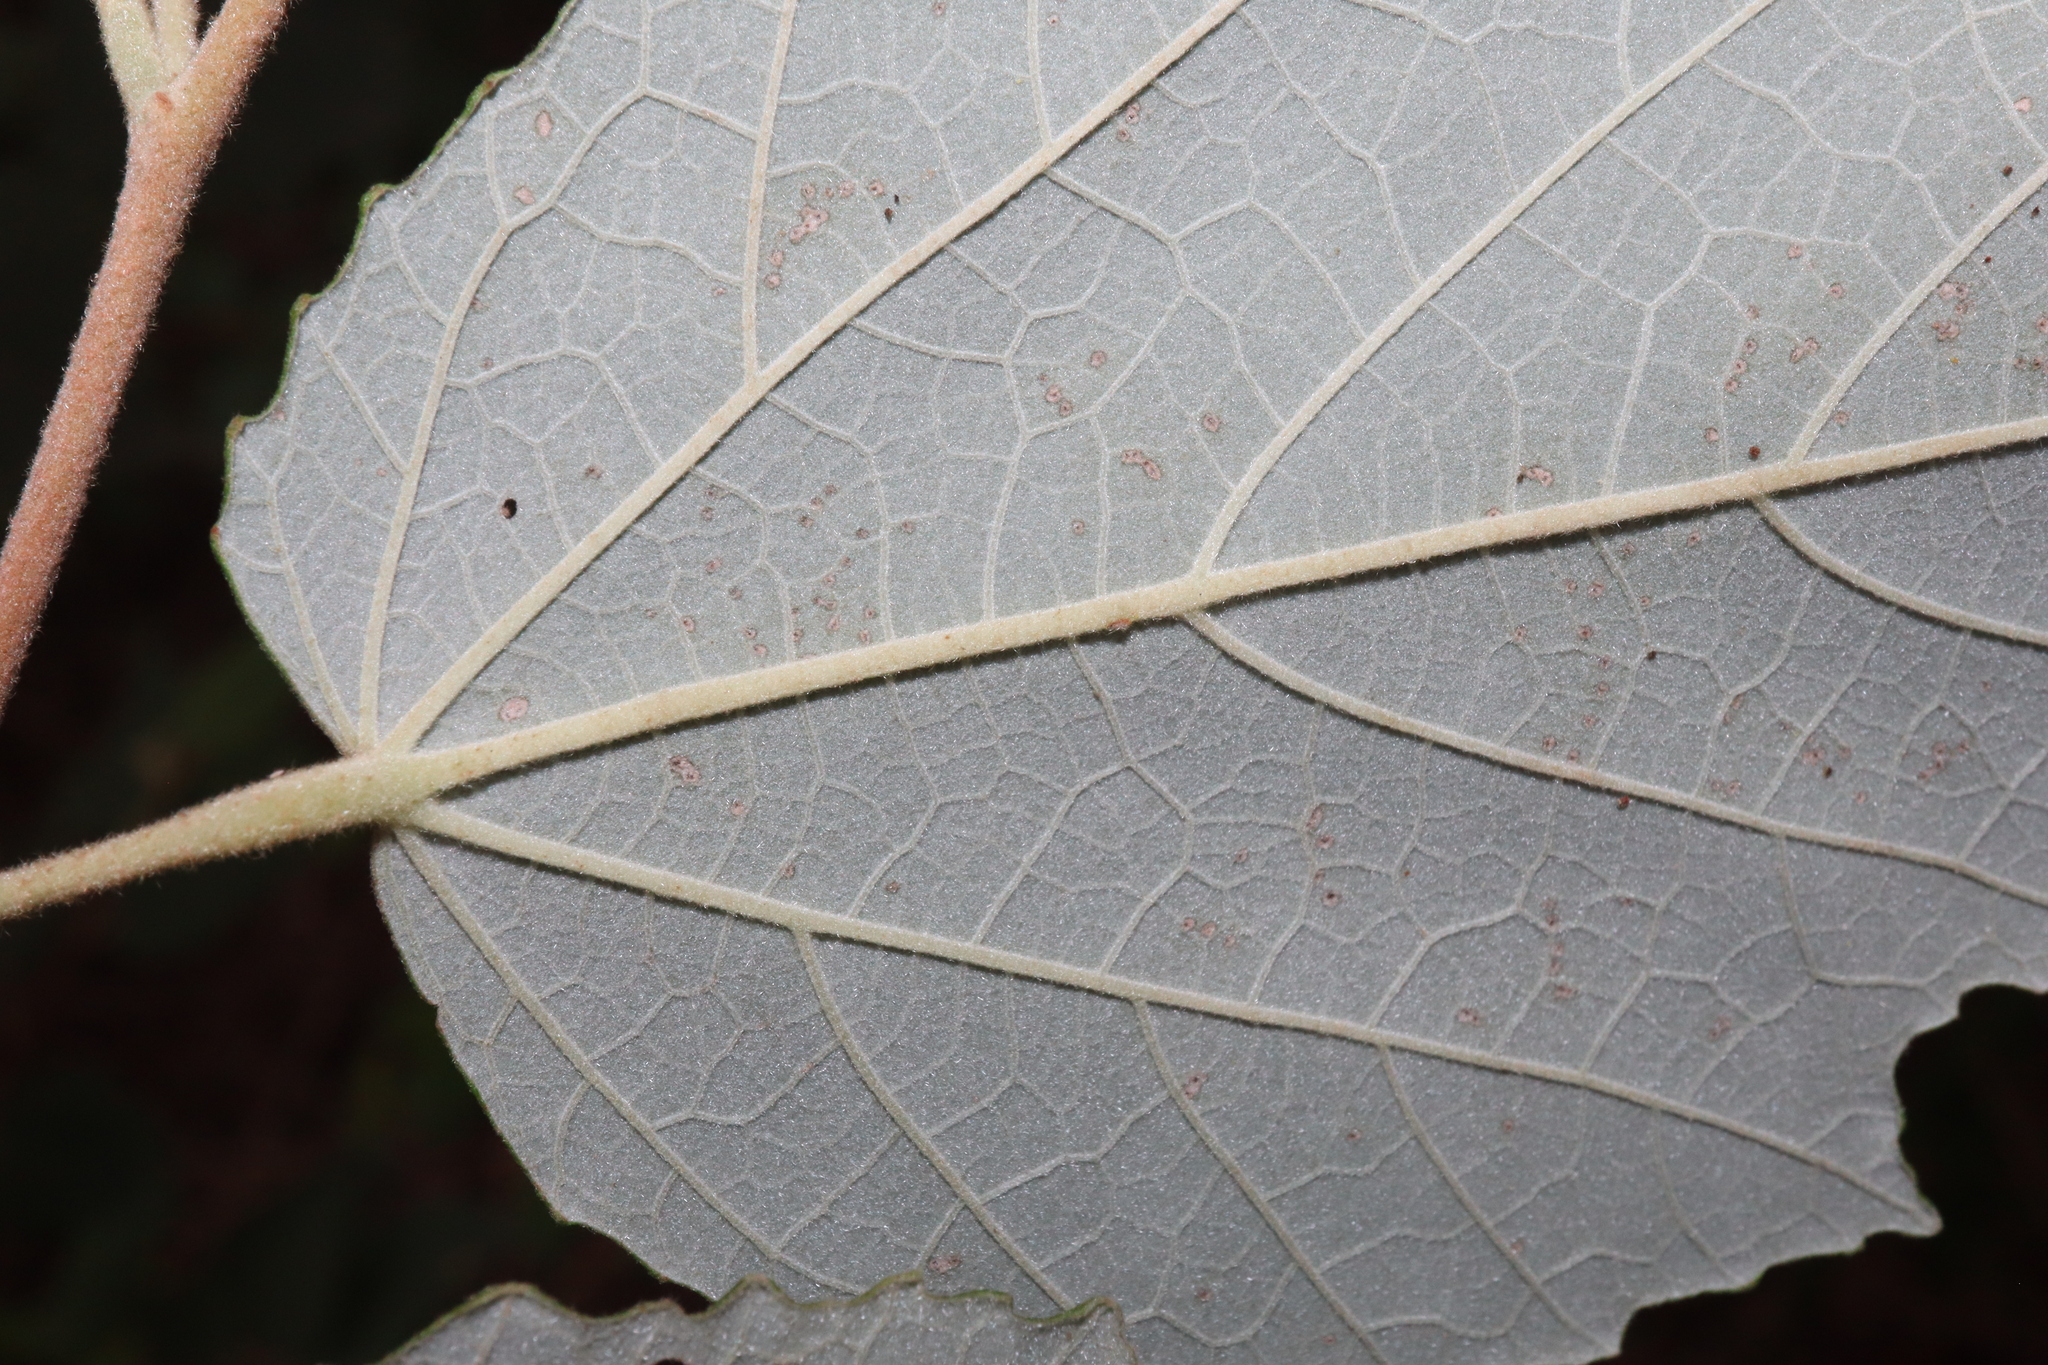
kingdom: Plantae
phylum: Tracheophyta
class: Magnoliopsida
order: Malvales
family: Malvaceae
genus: Androcalva
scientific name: Androcalva fraseri
